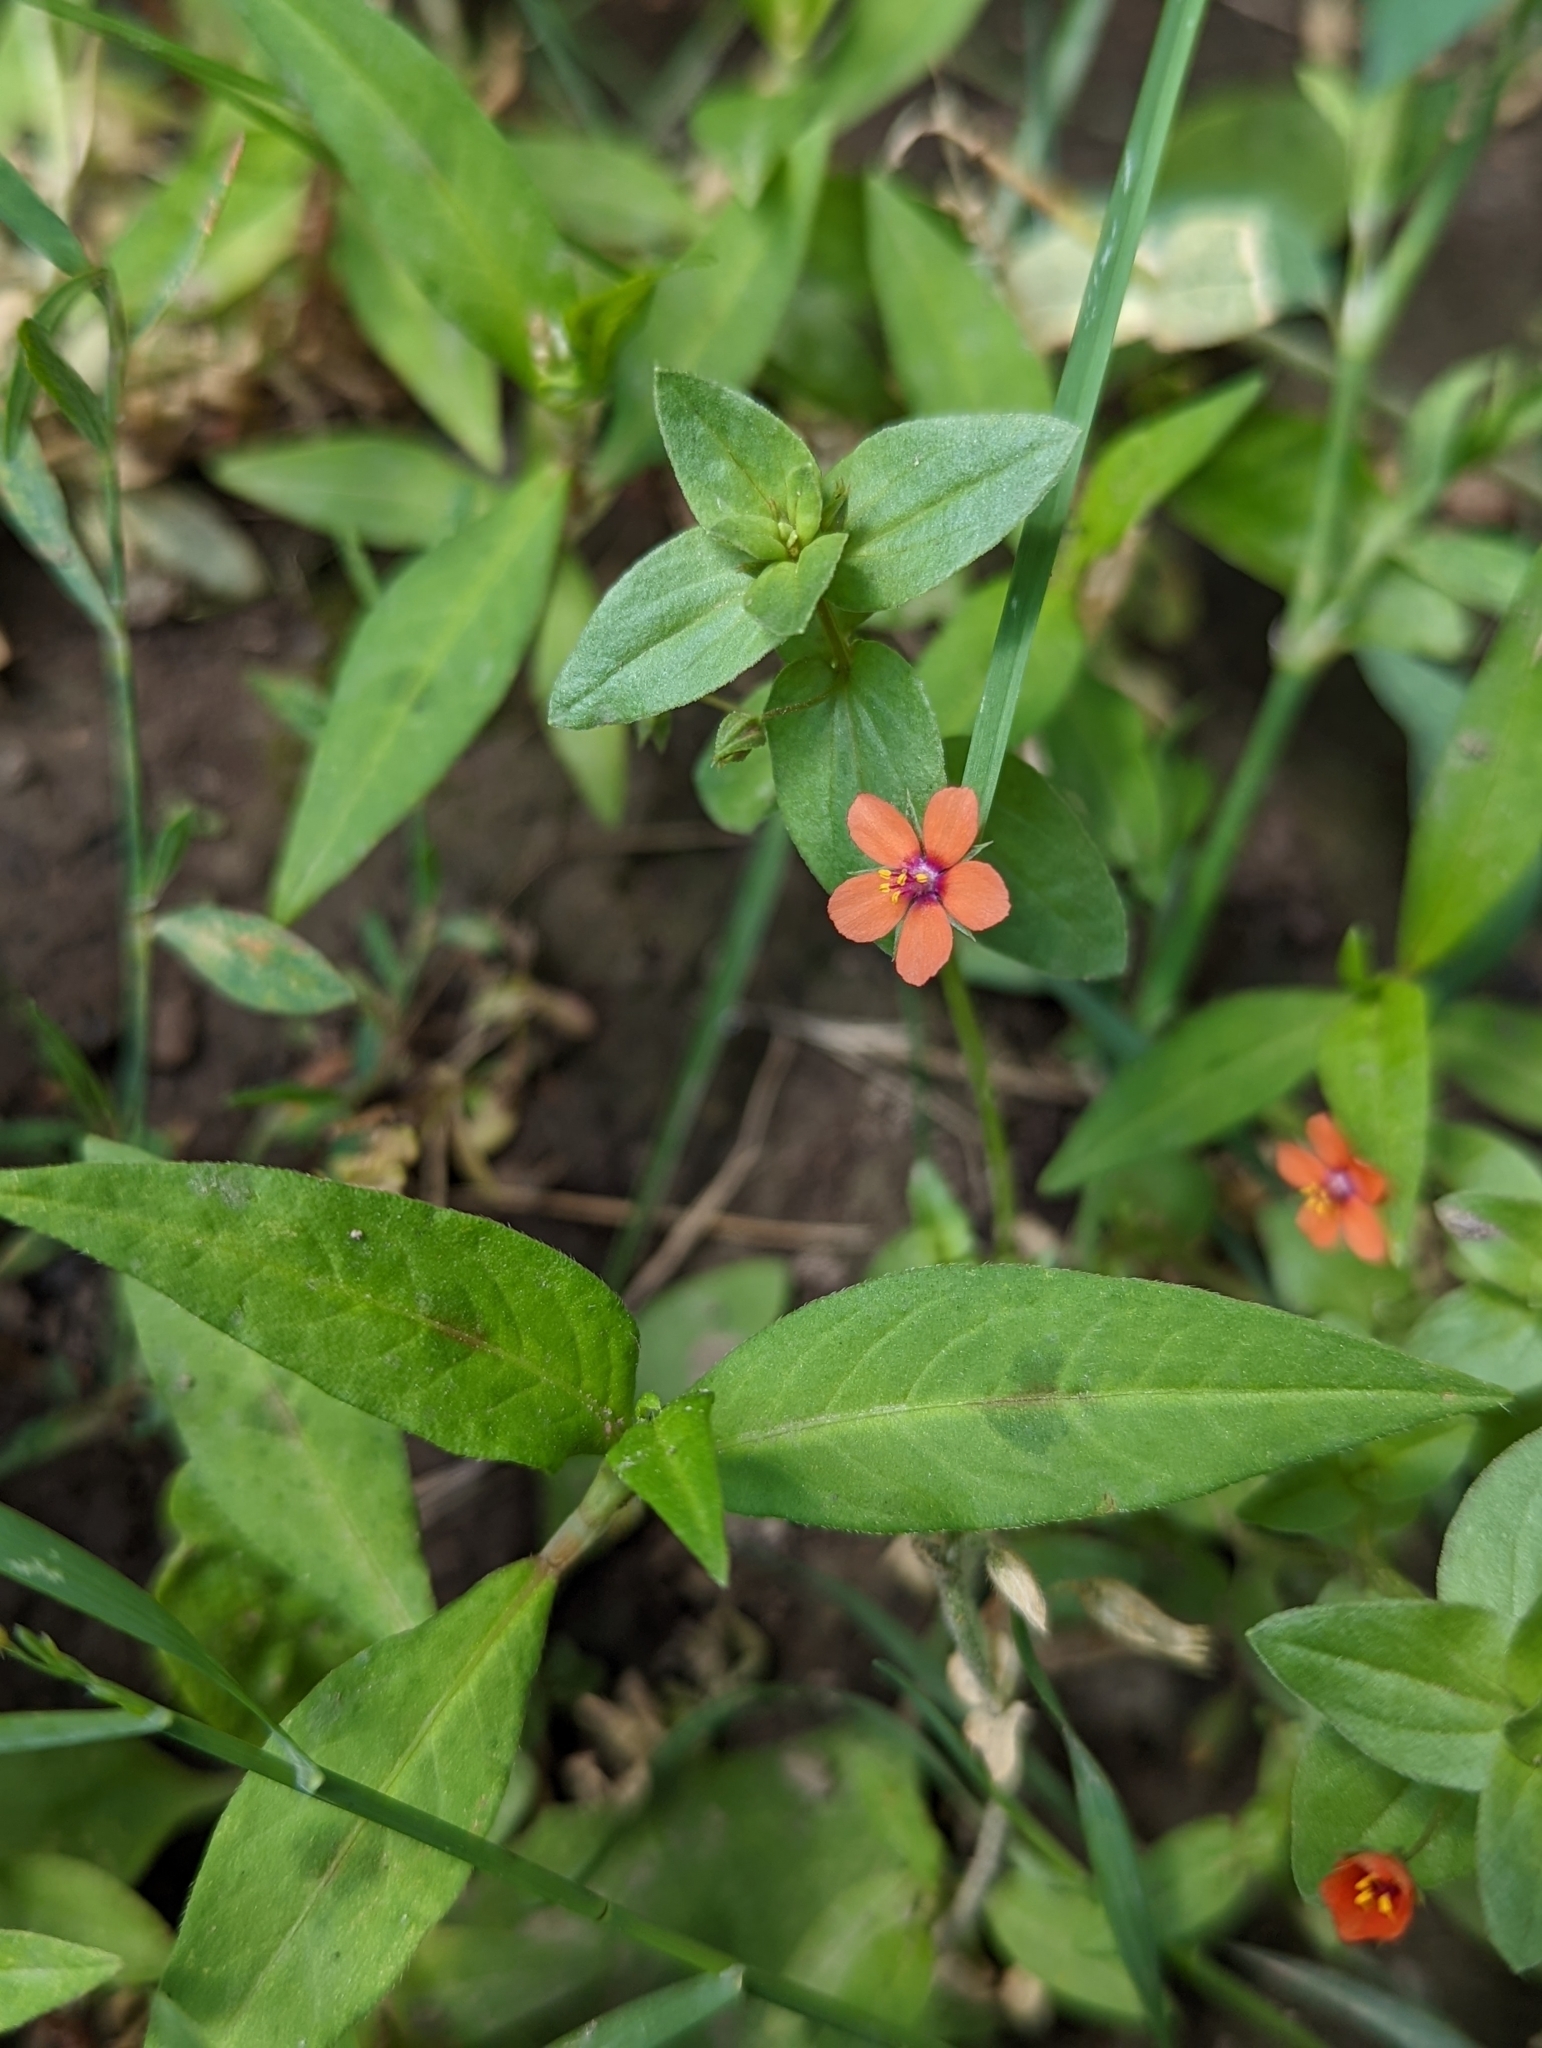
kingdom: Plantae
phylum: Tracheophyta
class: Magnoliopsida
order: Ericales
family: Primulaceae
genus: Lysimachia
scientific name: Lysimachia arvensis
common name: Scarlet pimpernel
